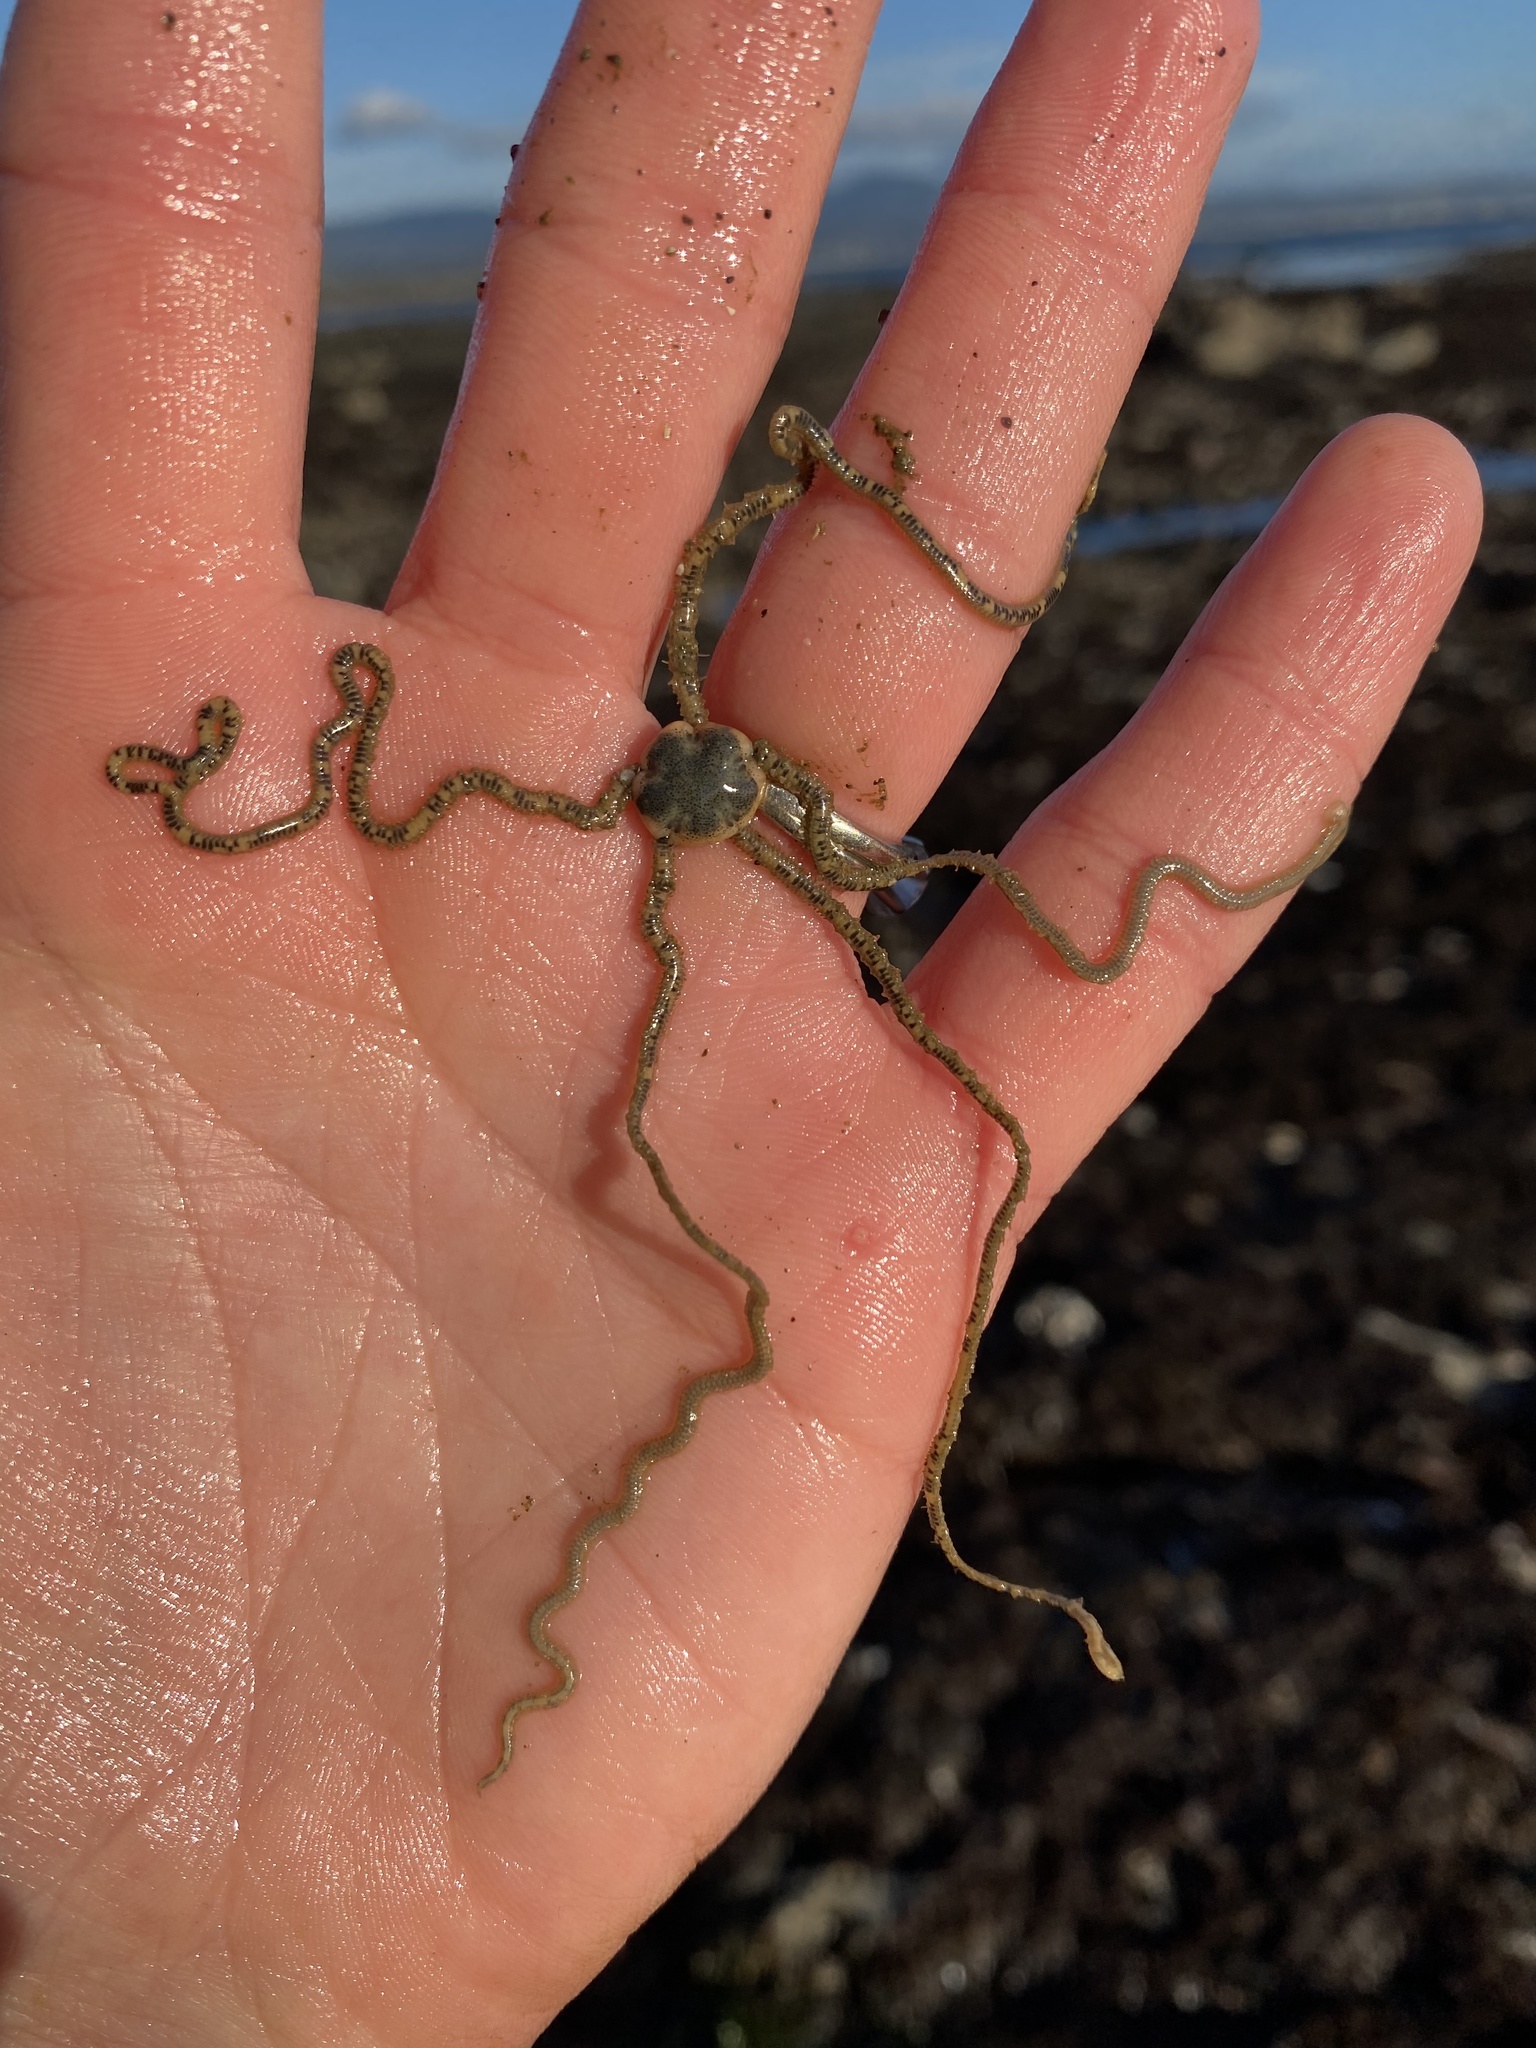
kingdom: Animalia
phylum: Echinodermata
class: Ophiuroidea
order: Amphilepidida
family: Amphiuridae
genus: Amphiodia
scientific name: Amphiodia occidentalis
